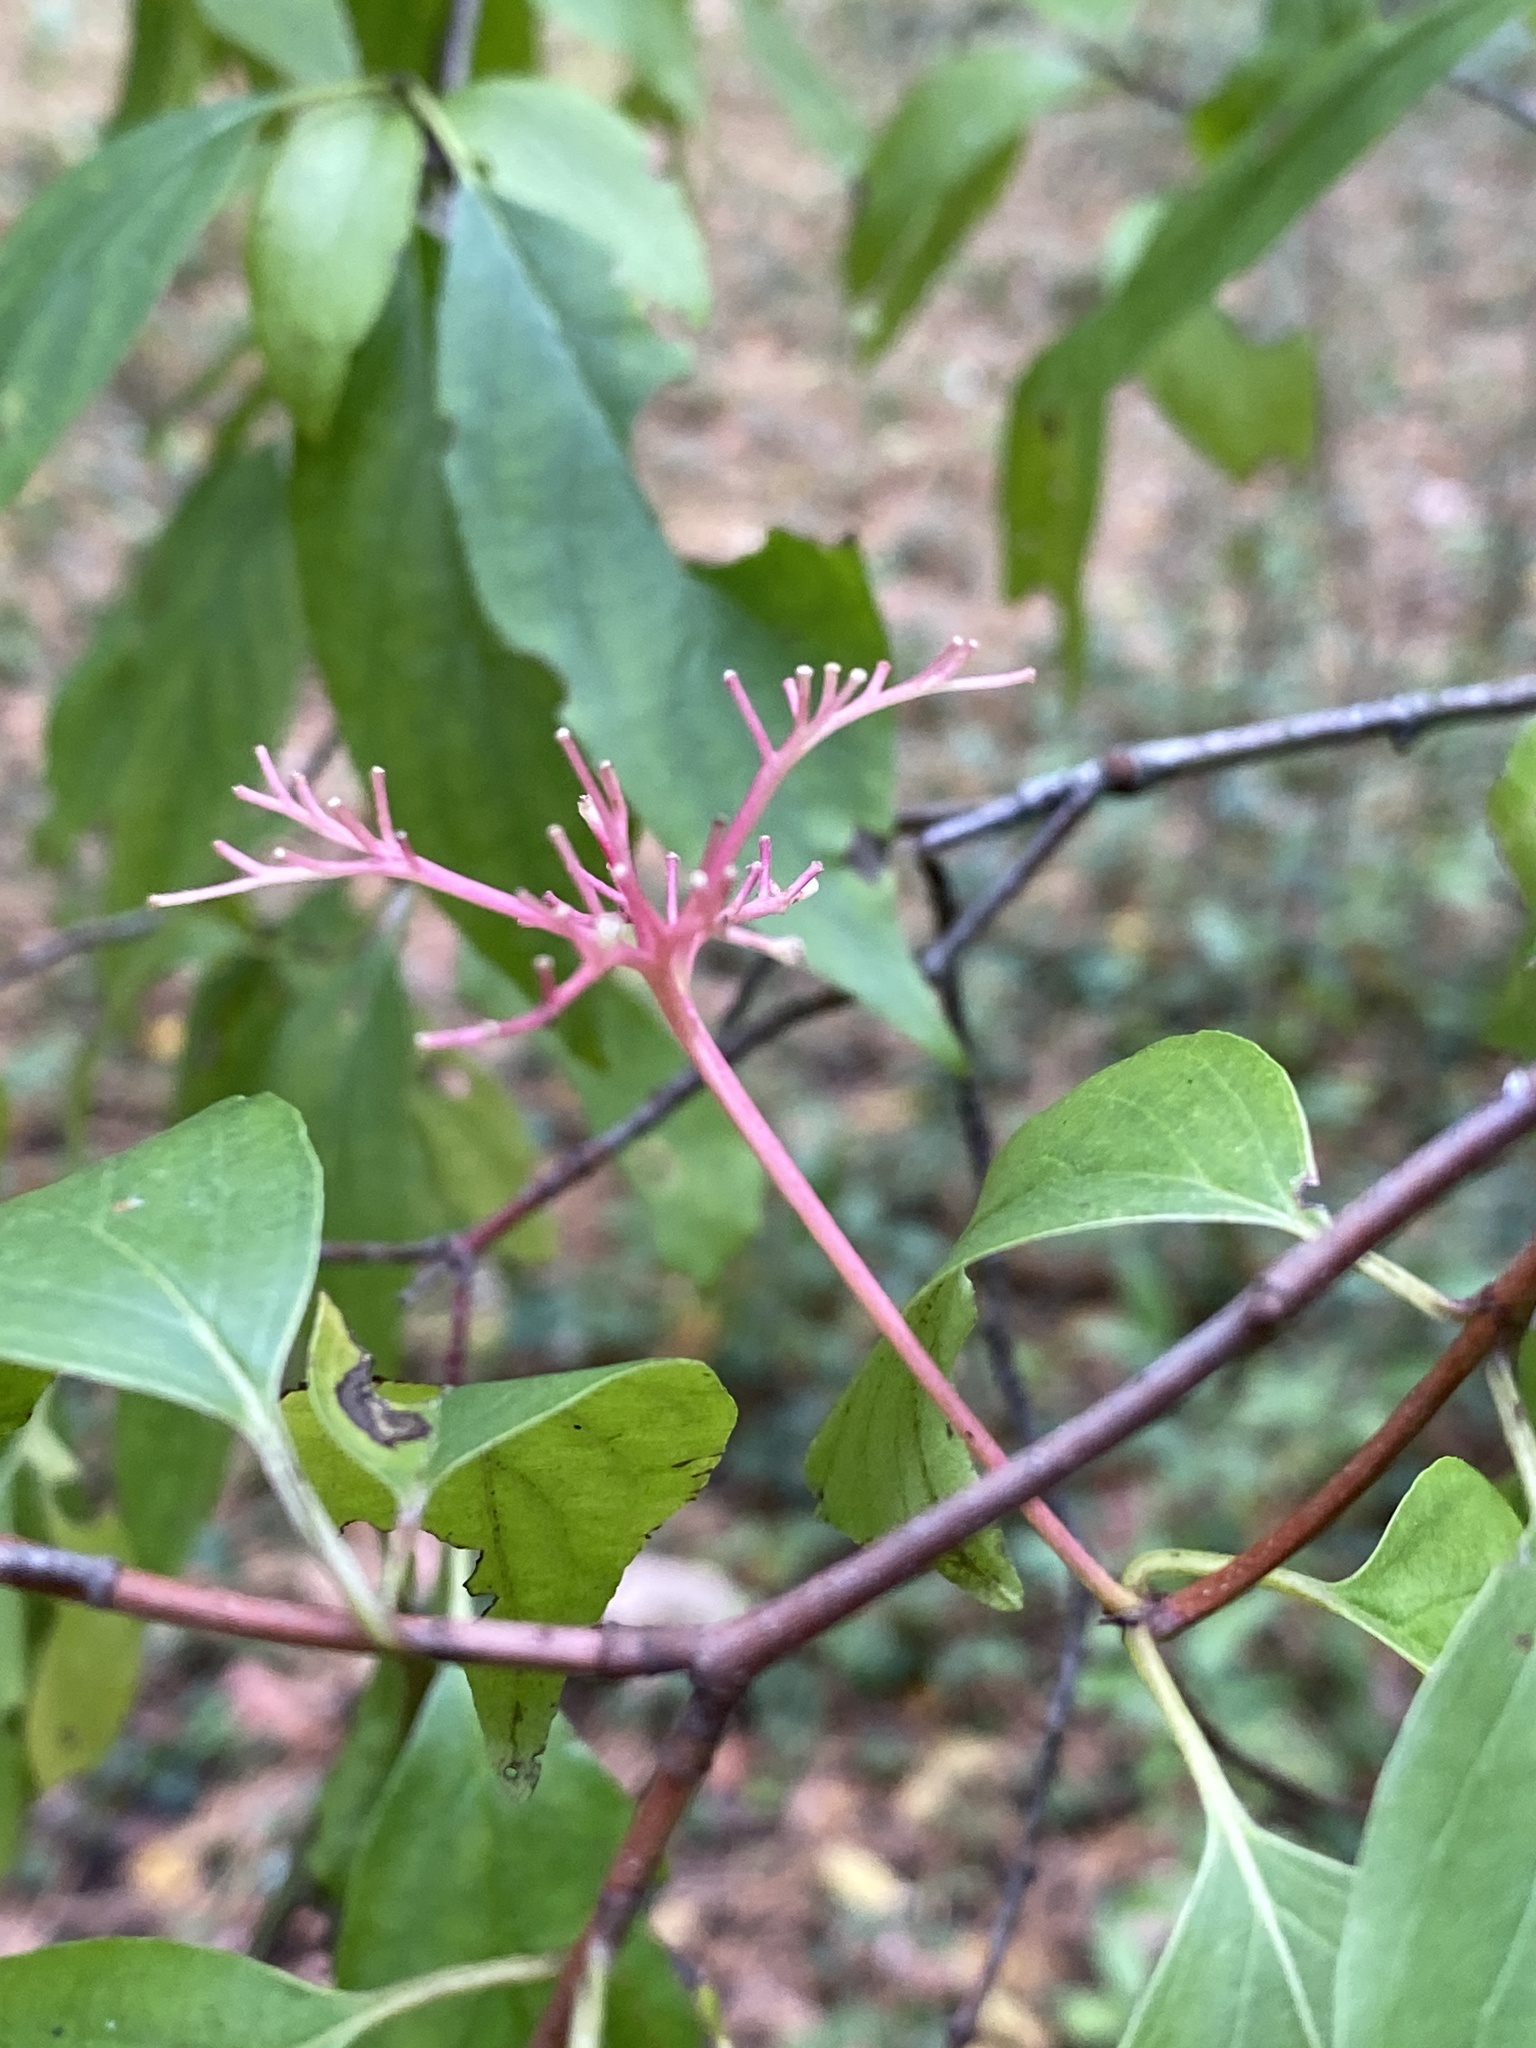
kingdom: Plantae
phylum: Tracheophyta
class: Magnoliopsida
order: Cornales
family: Cornaceae
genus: Cornus
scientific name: Cornus racemosa
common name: Panicled dogwood
